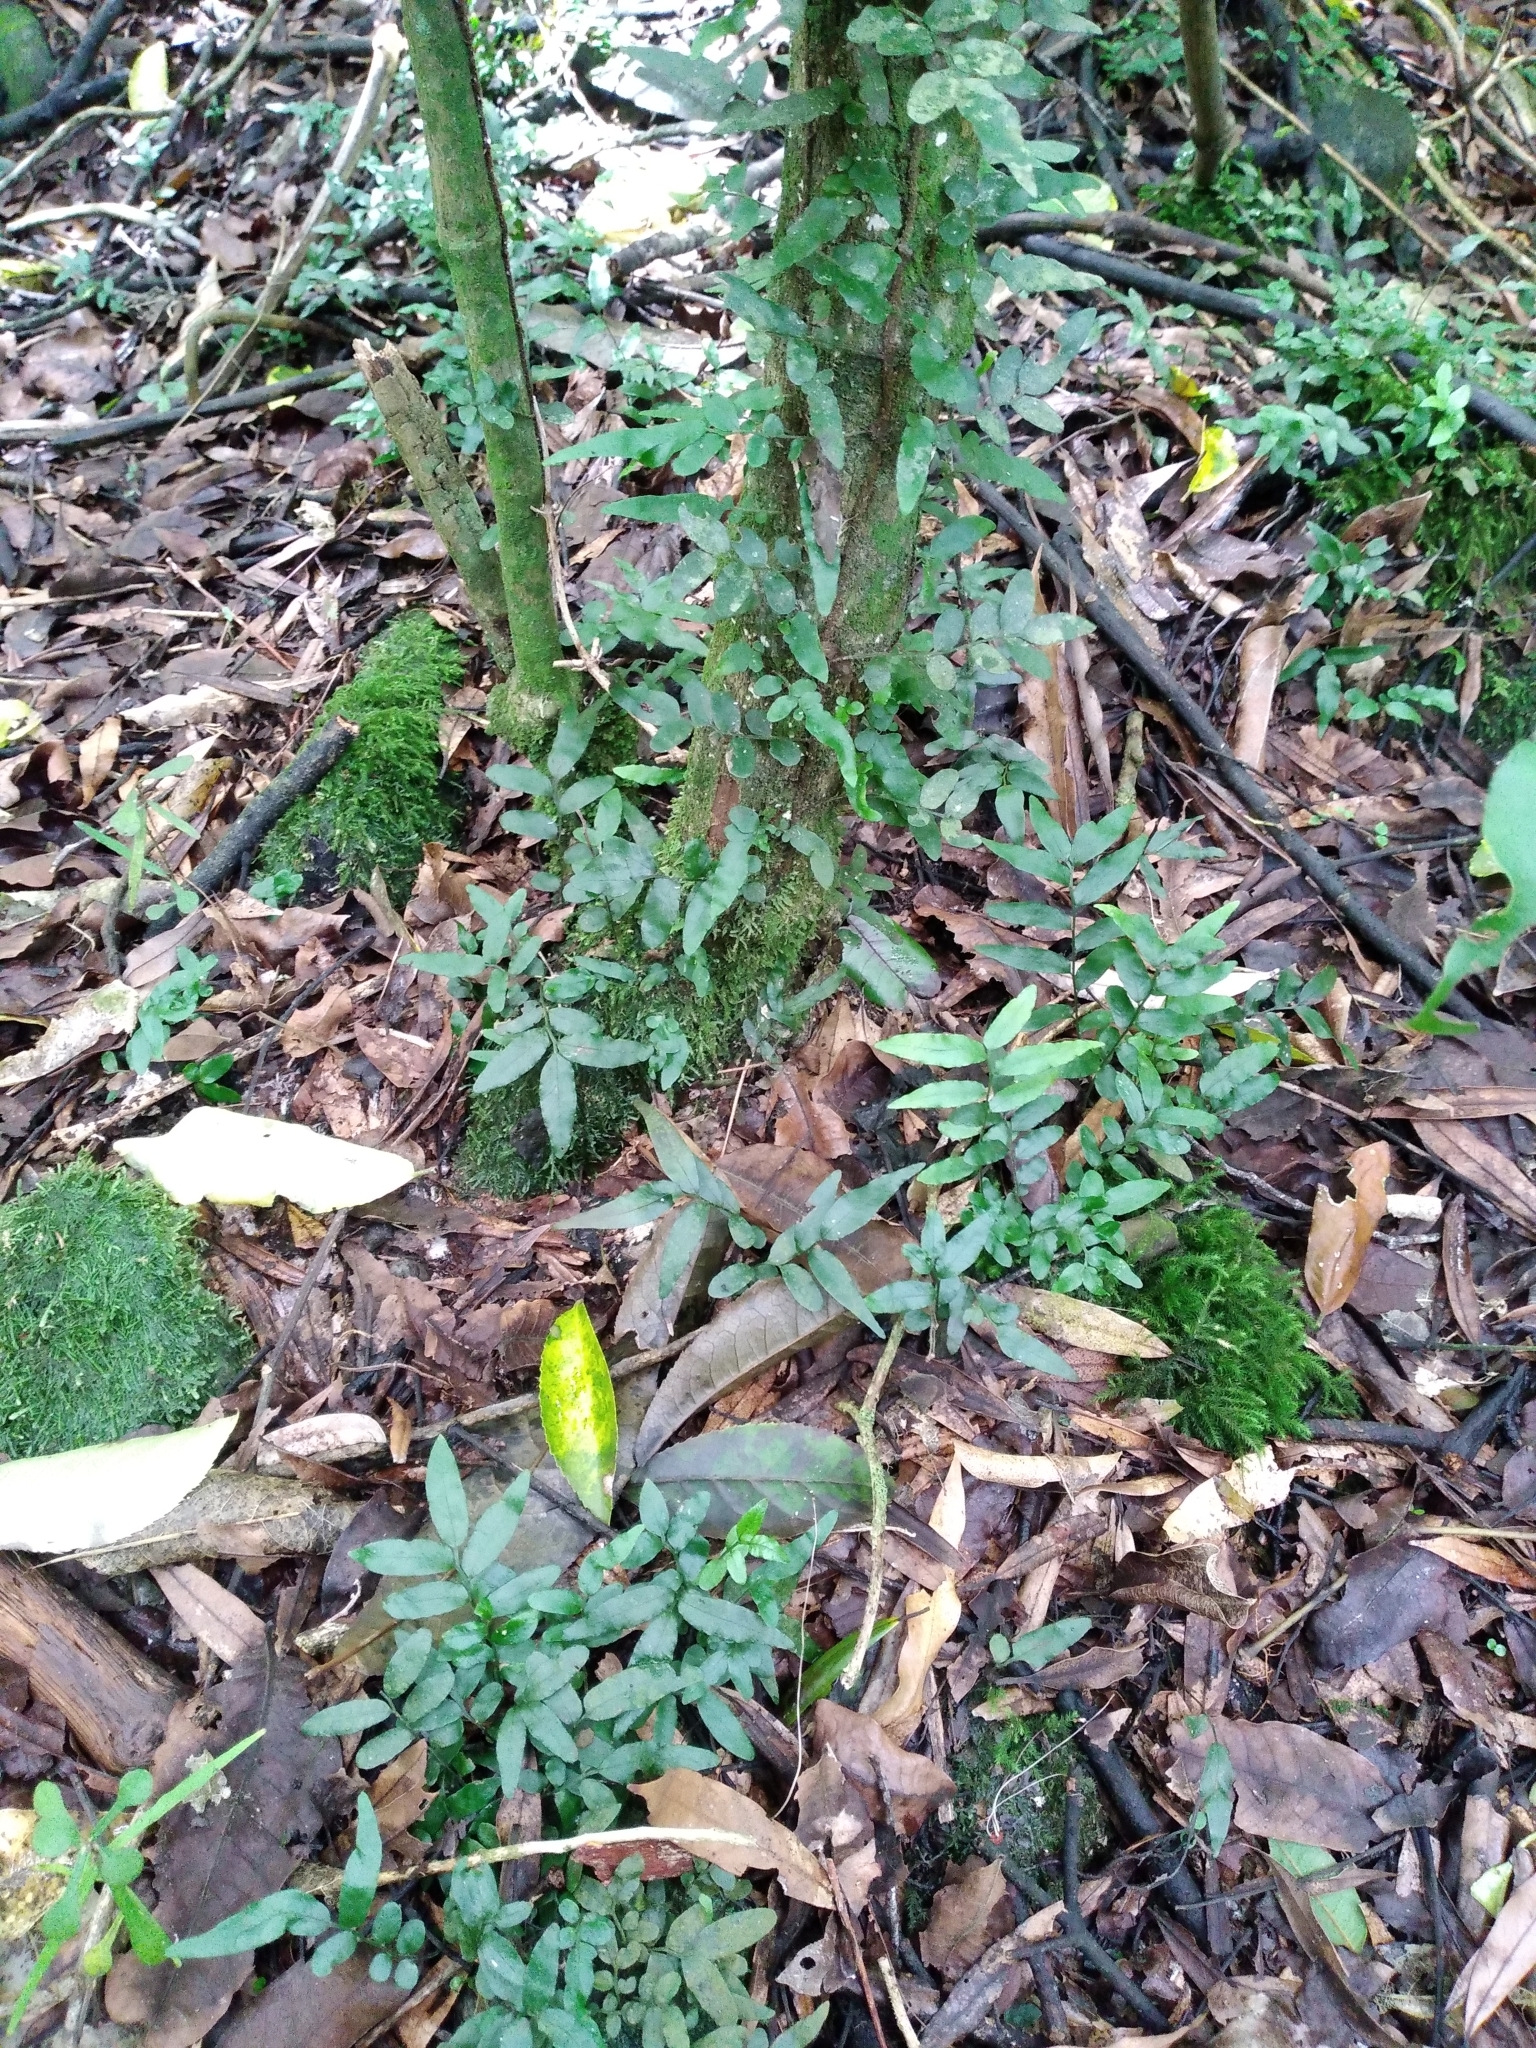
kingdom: Plantae
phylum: Tracheophyta
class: Polypodiopsida
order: Polypodiales
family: Tectariaceae
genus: Arthropteris
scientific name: Arthropteris tenella
